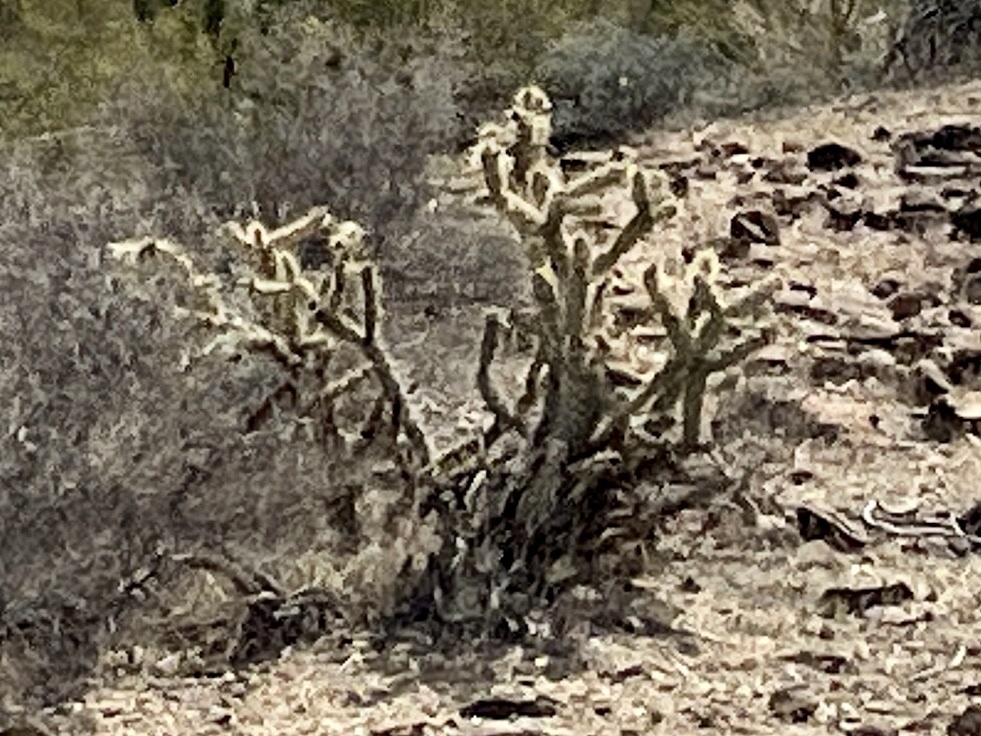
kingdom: Plantae
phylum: Tracheophyta
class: Magnoliopsida
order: Caryophyllales
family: Cactaceae
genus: Cylindropuntia
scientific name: Cylindropuntia acanthocarpa
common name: Buckhorn cholla
